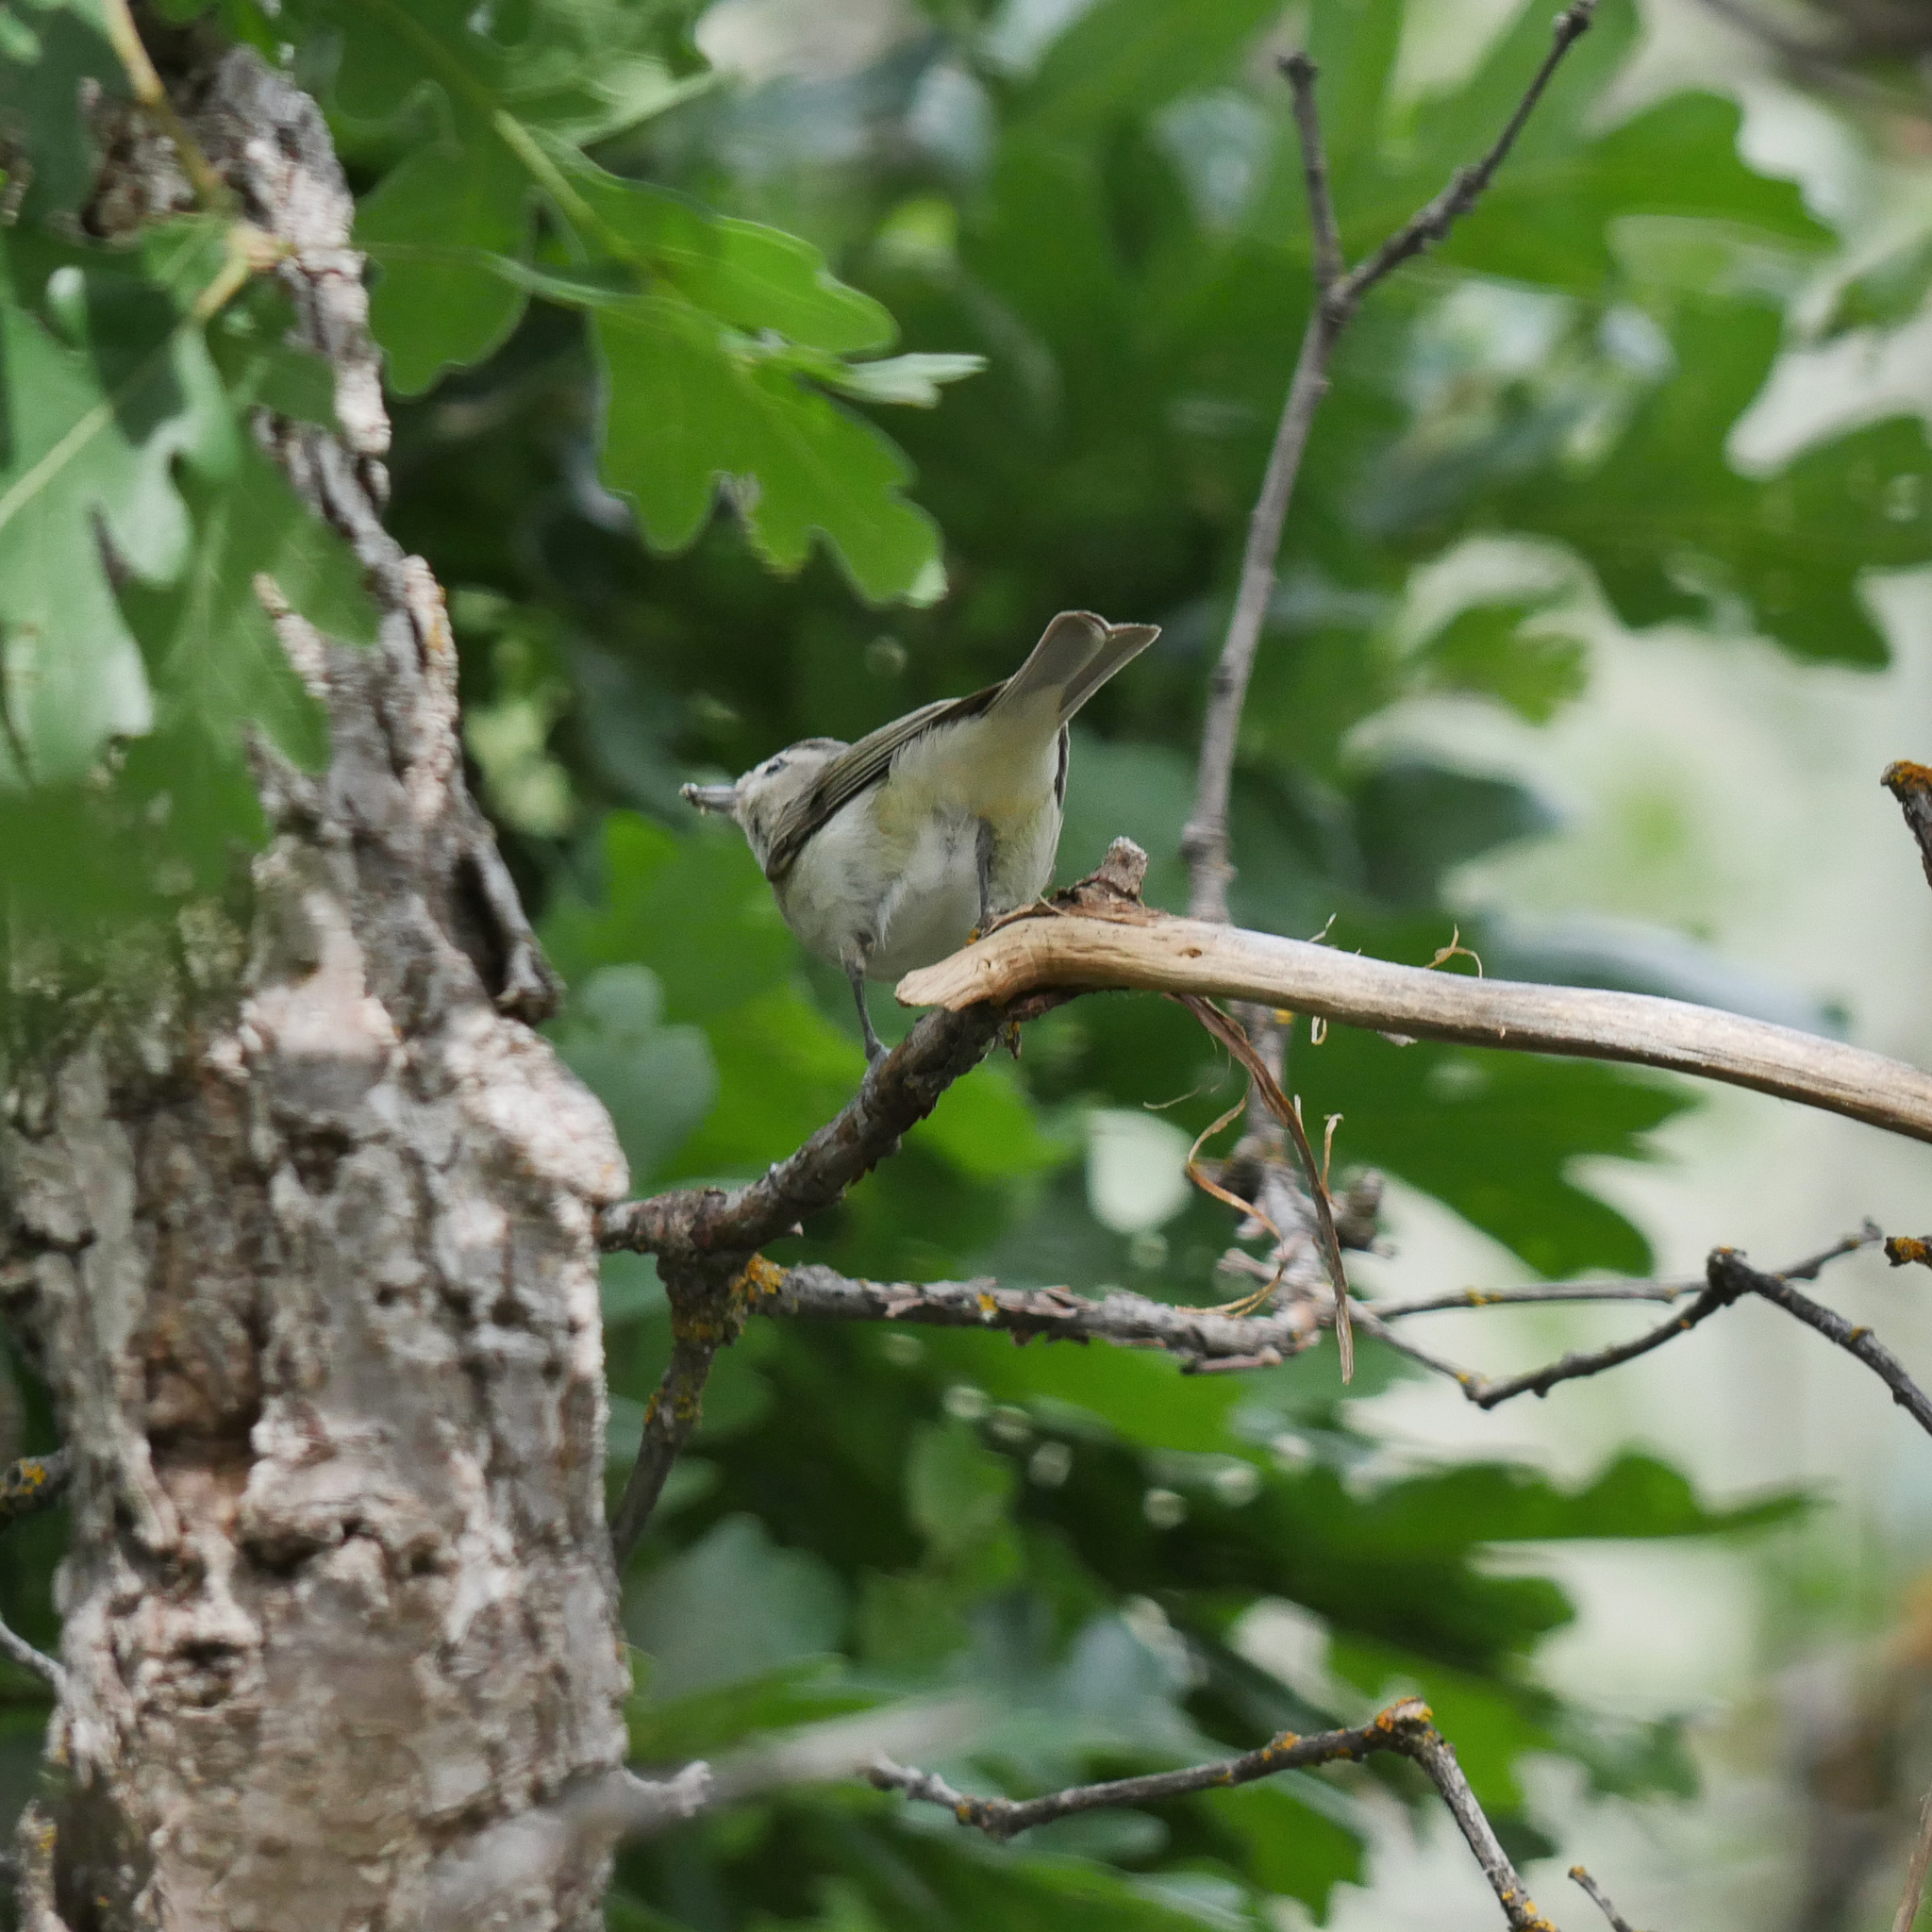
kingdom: Animalia
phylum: Chordata
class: Aves
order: Passeriformes
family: Vireonidae
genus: Vireo
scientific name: Vireo gilvus
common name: Warbling vireo
